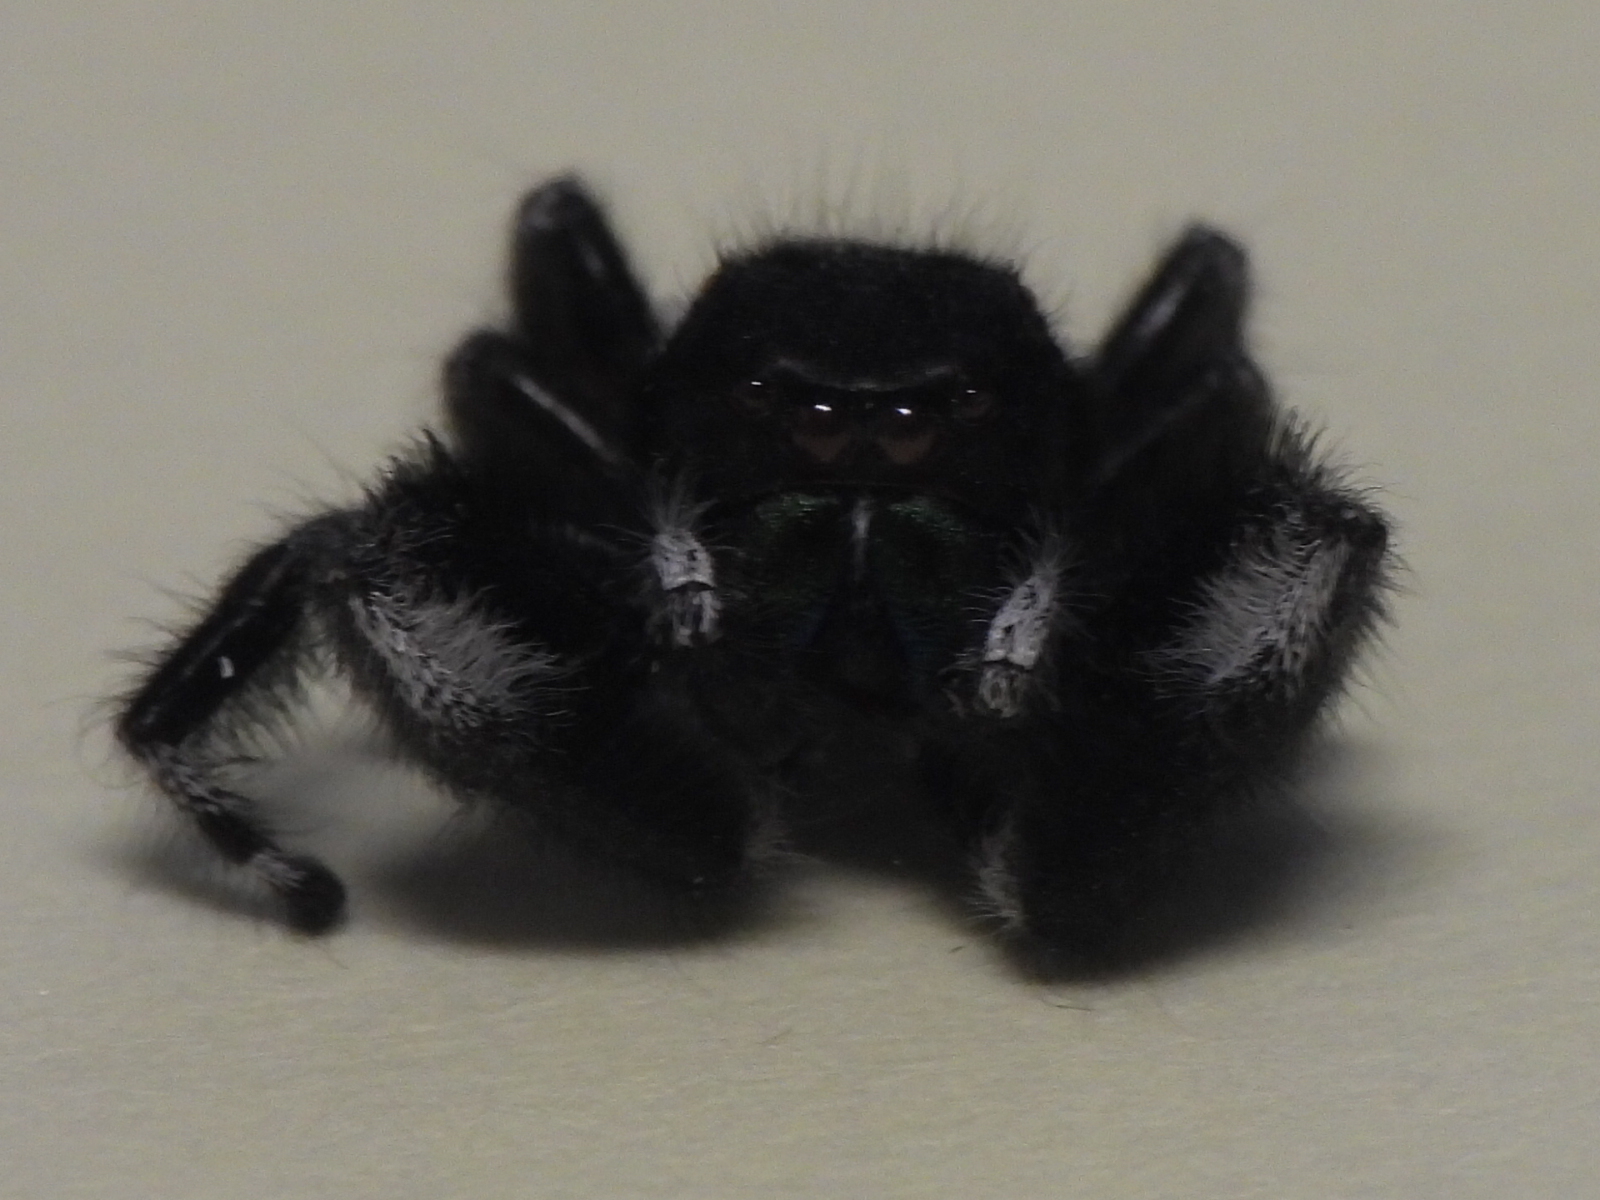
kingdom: Animalia
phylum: Arthropoda
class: Arachnida
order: Araneae
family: Salticidae
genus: Phidippus
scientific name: Phidippus audax
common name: Bold jumper
